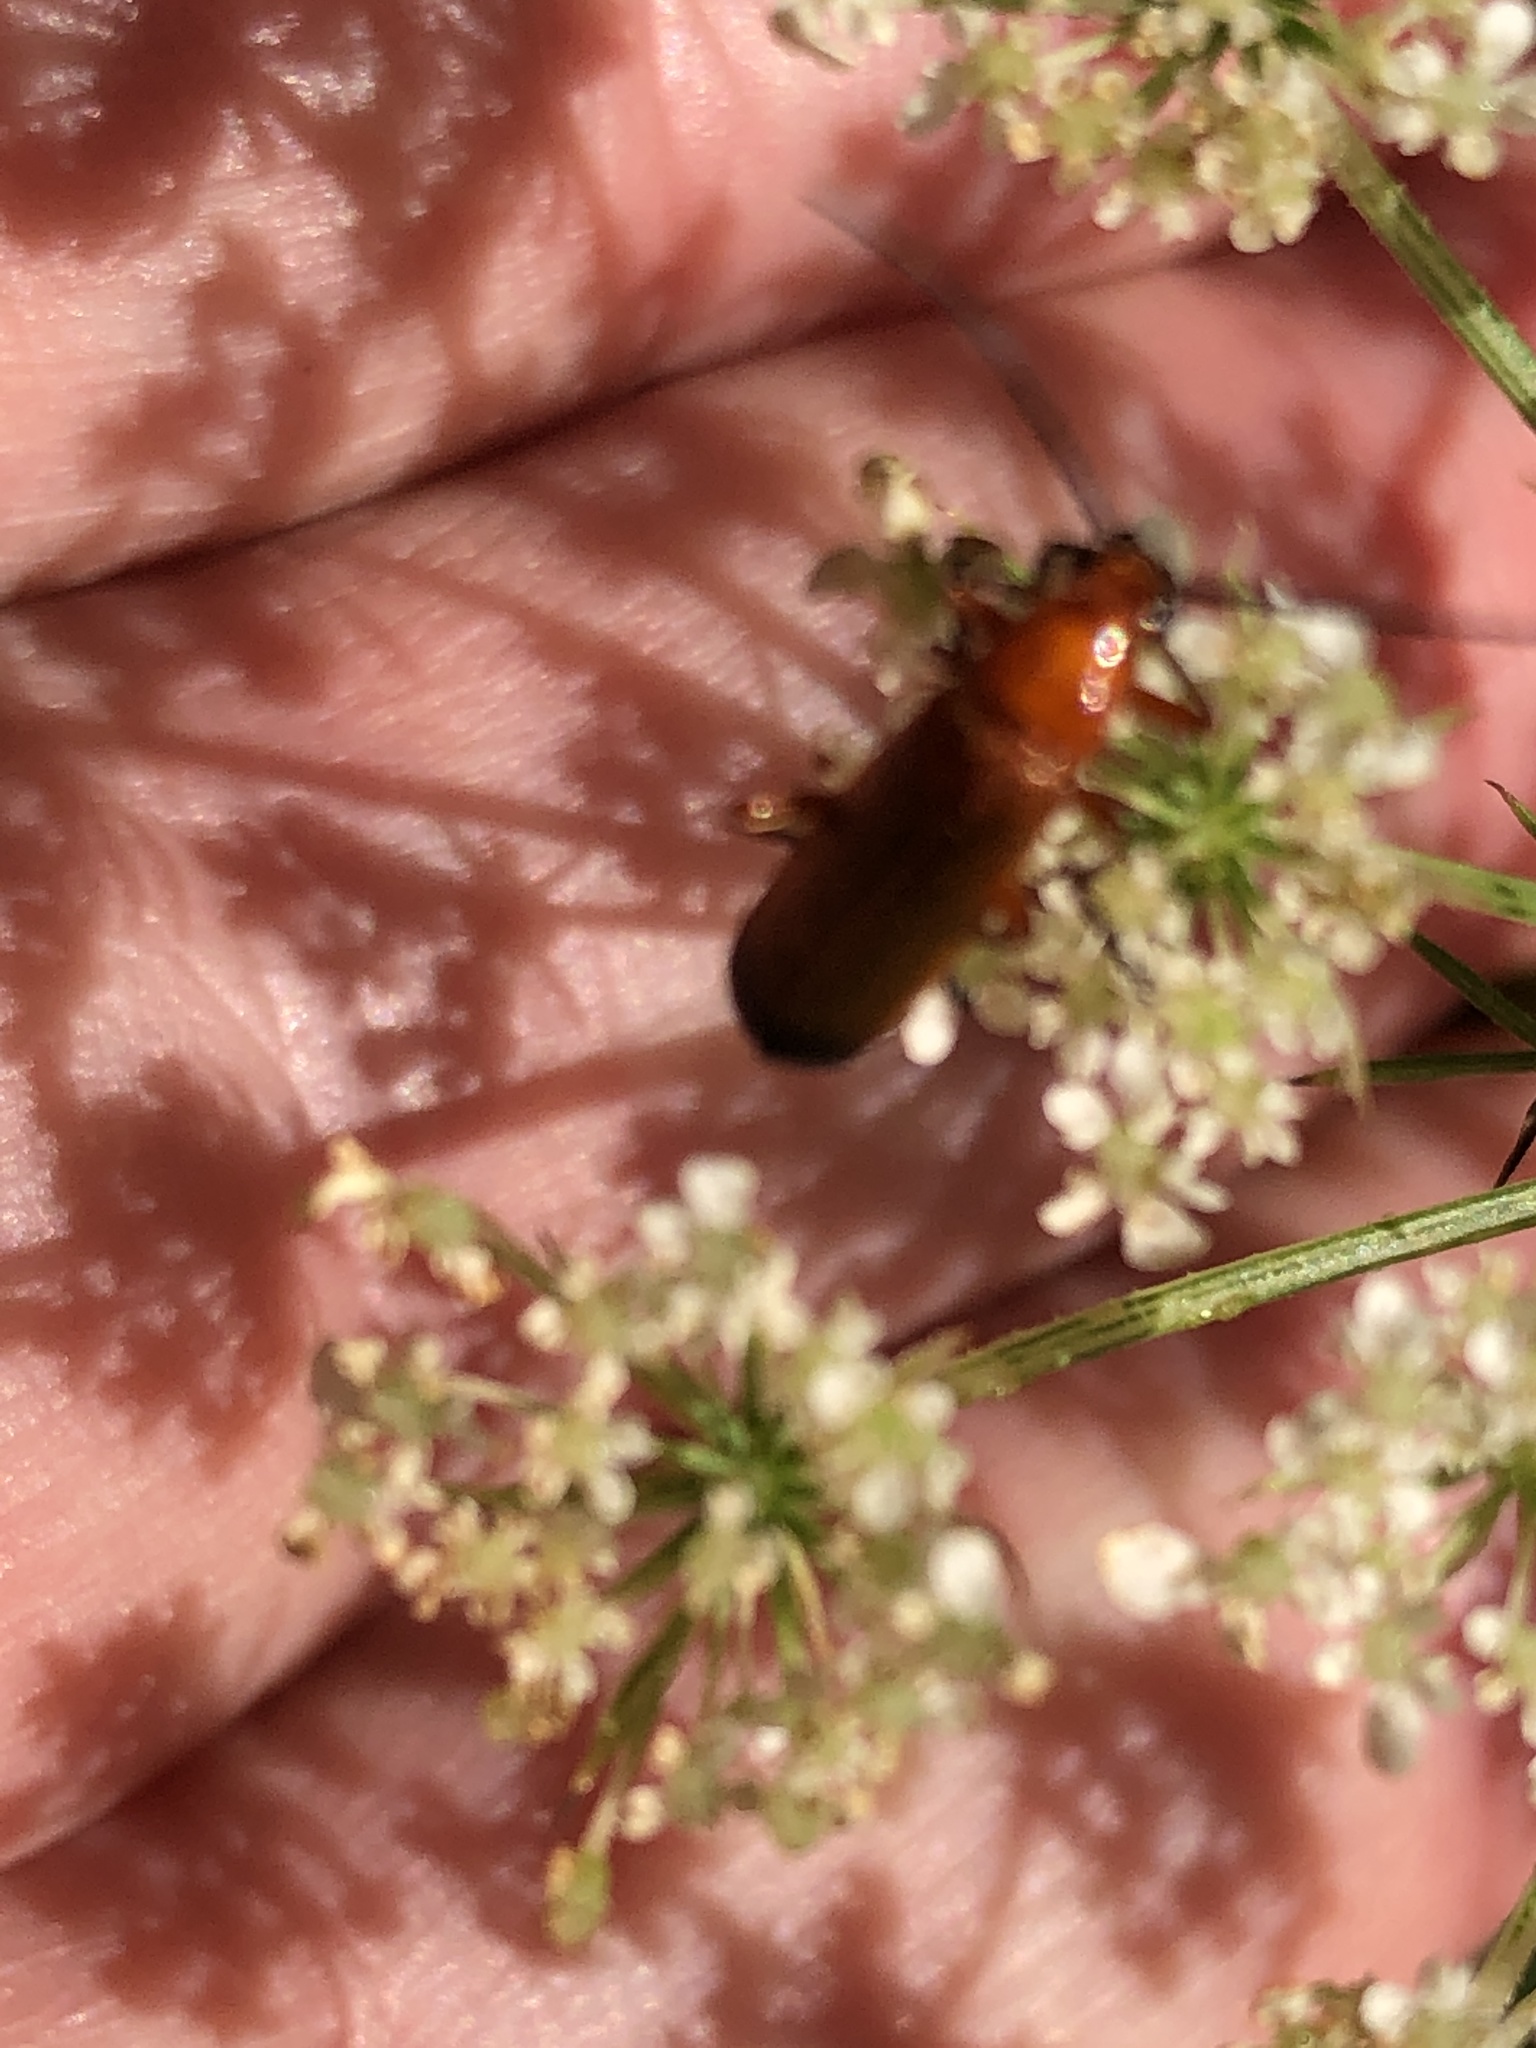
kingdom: Animalia
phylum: Arthropoda
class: Insecta
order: Coleoptera
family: Cantharidae
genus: Rhagonycha
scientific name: Rhagonycha fulva
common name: Common red soldier beetle
